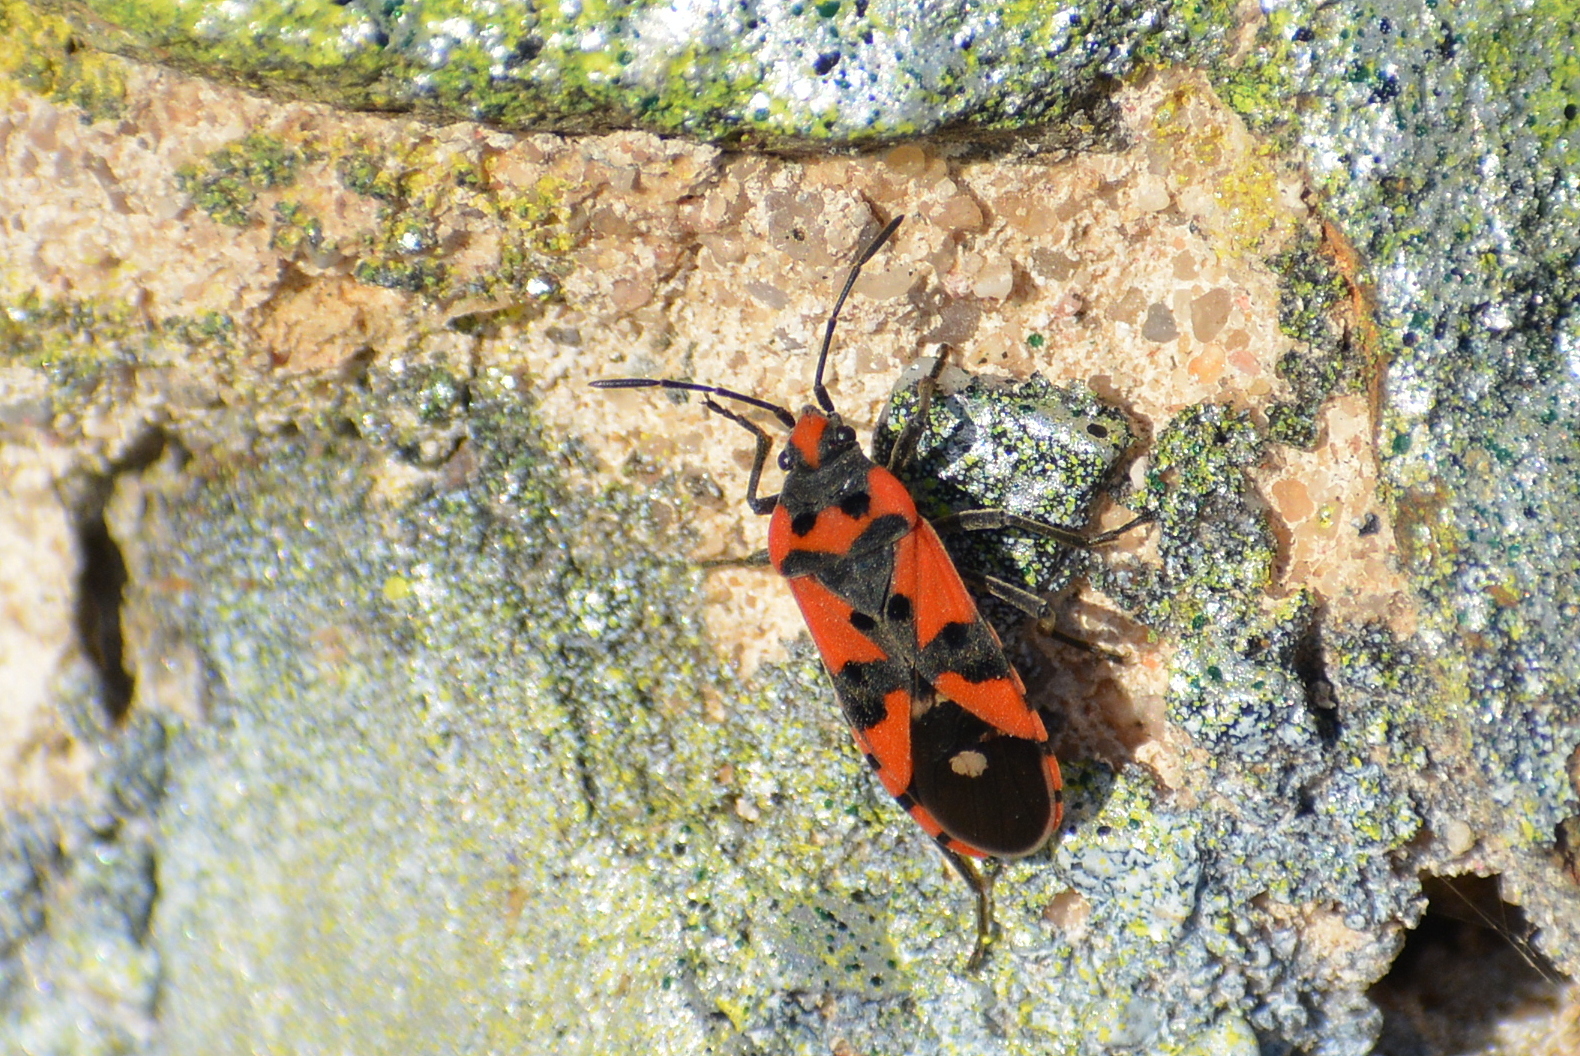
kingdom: Animalia
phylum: Arthropoda
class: Insecta
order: Hemiptera
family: Lygaeidae
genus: Lygaeus
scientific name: Lygaeus equestris
